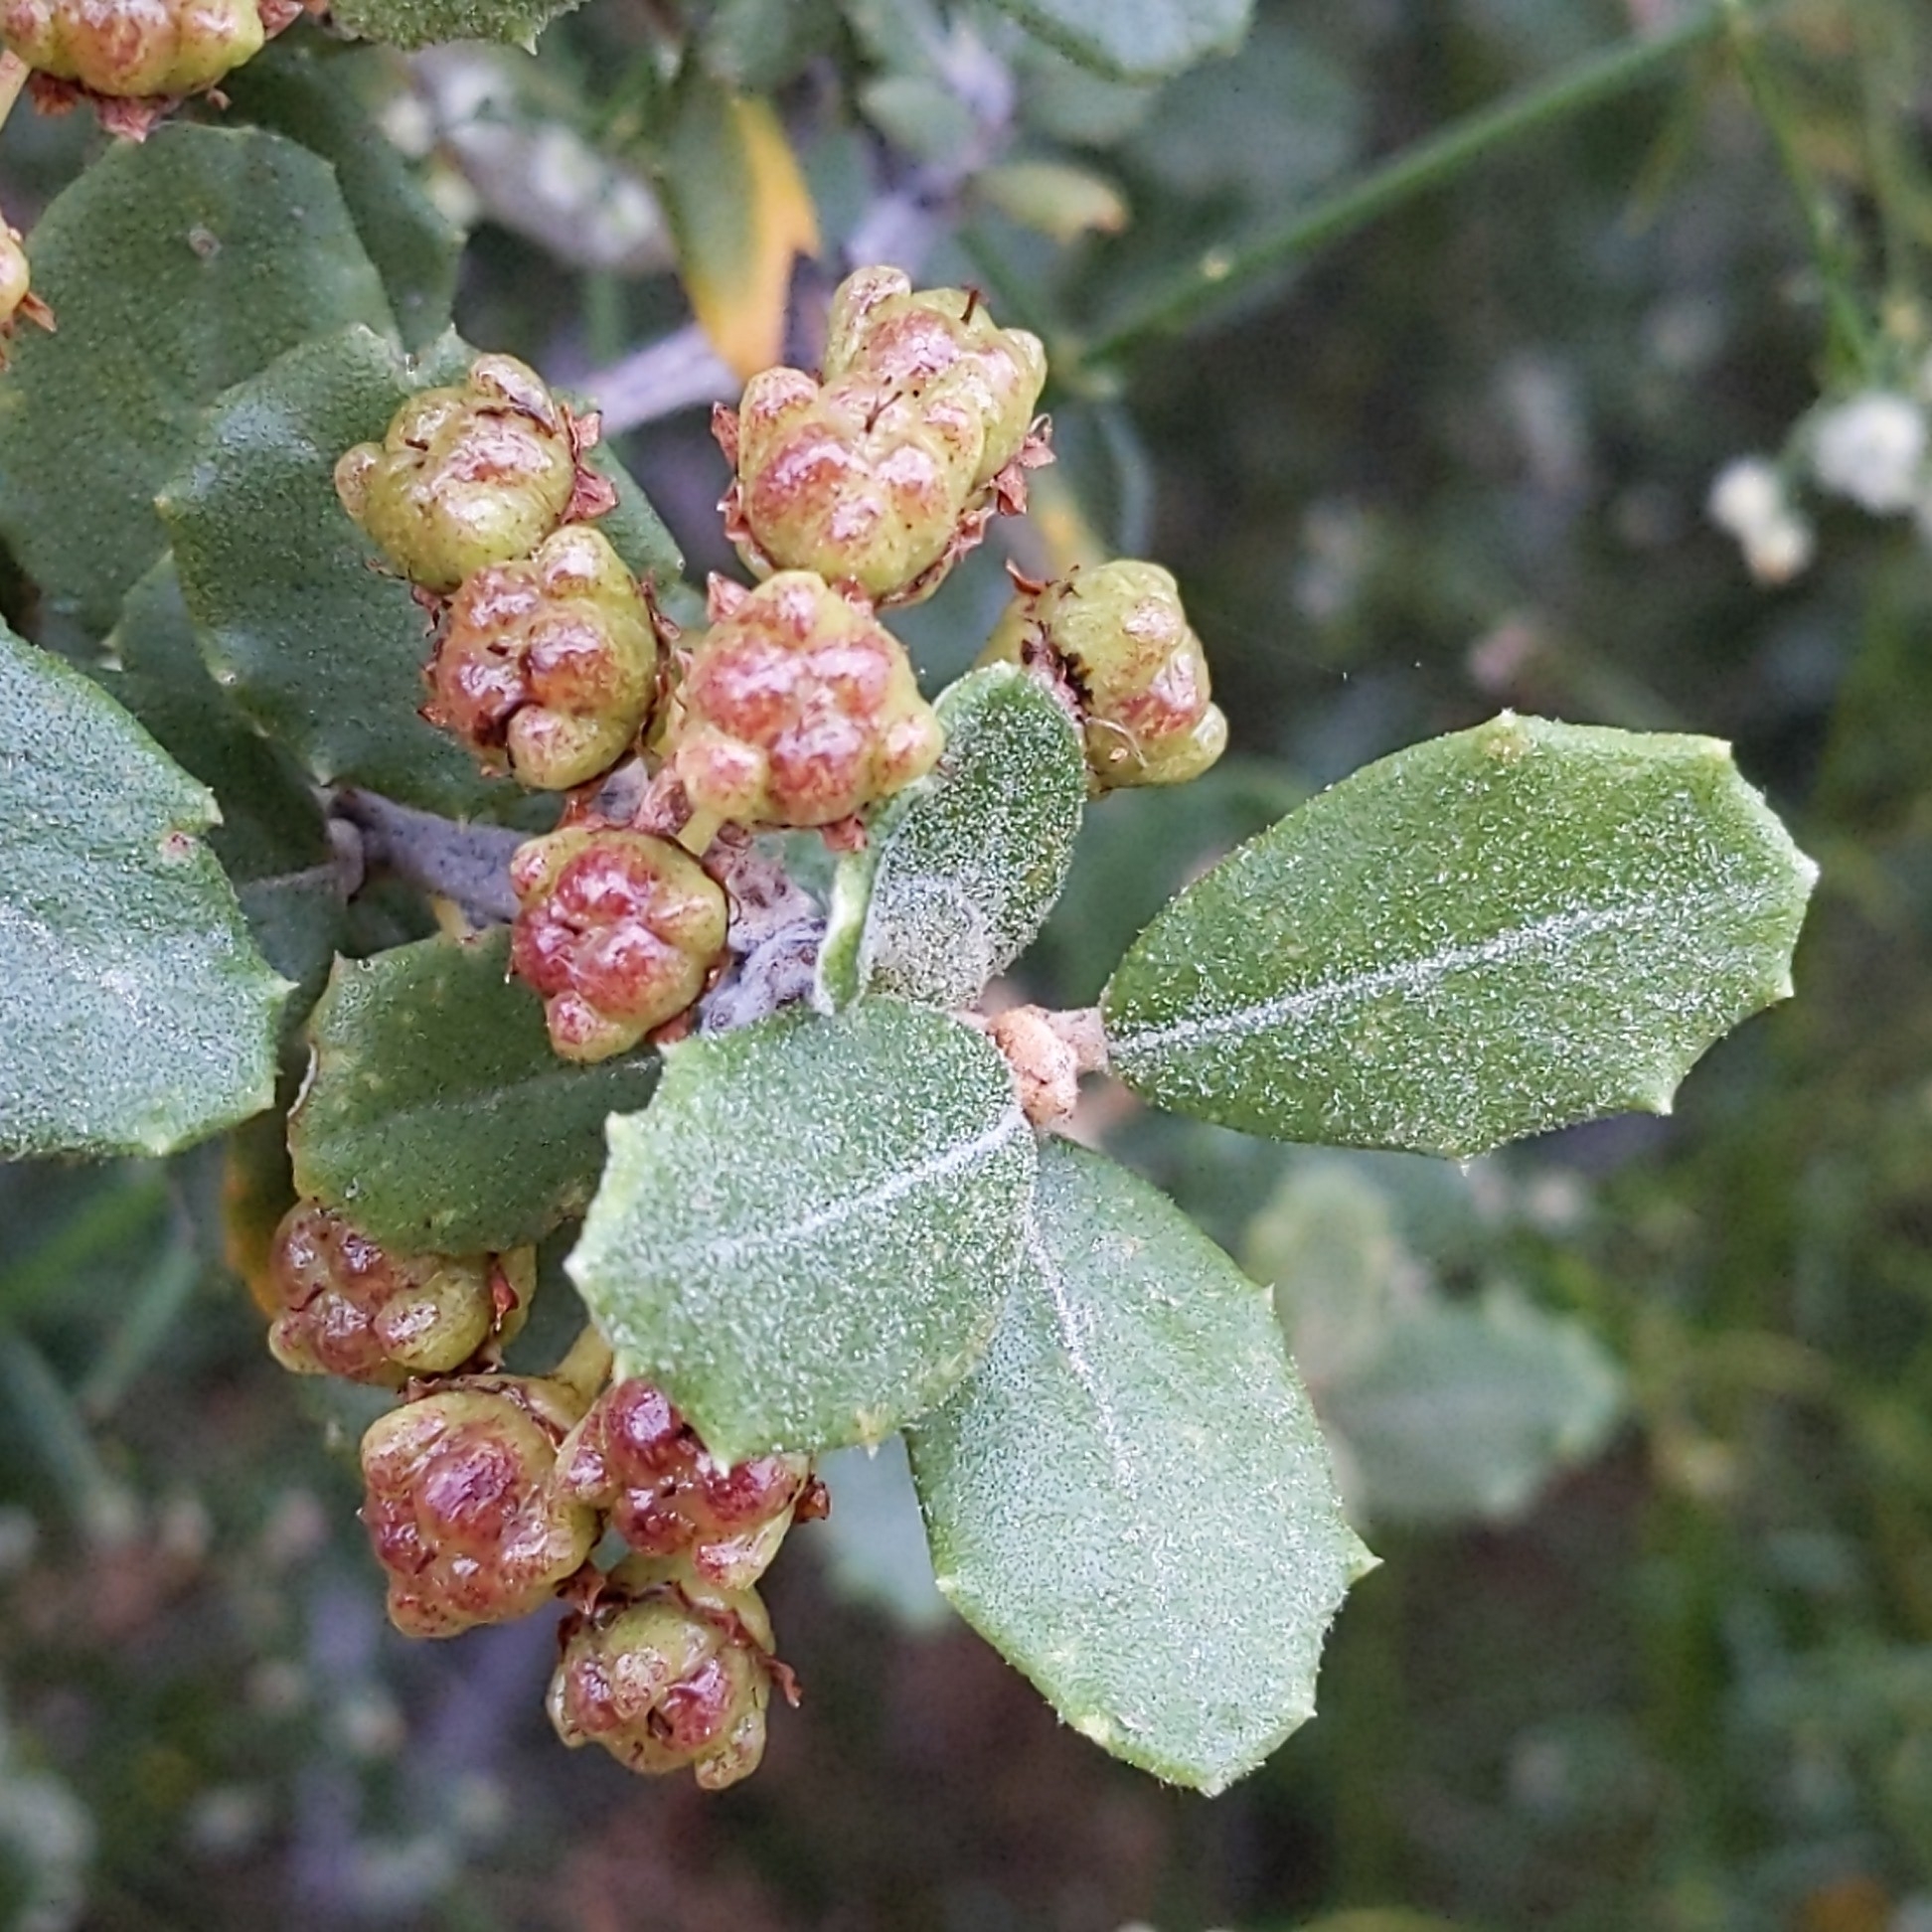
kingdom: Plantae
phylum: Tracheophyta
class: Magnoliopsida
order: Rosales
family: Rhamnaceae
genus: Ceanothus
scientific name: Ceanothus crassifolius
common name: Hoaryleaf ceanothus
